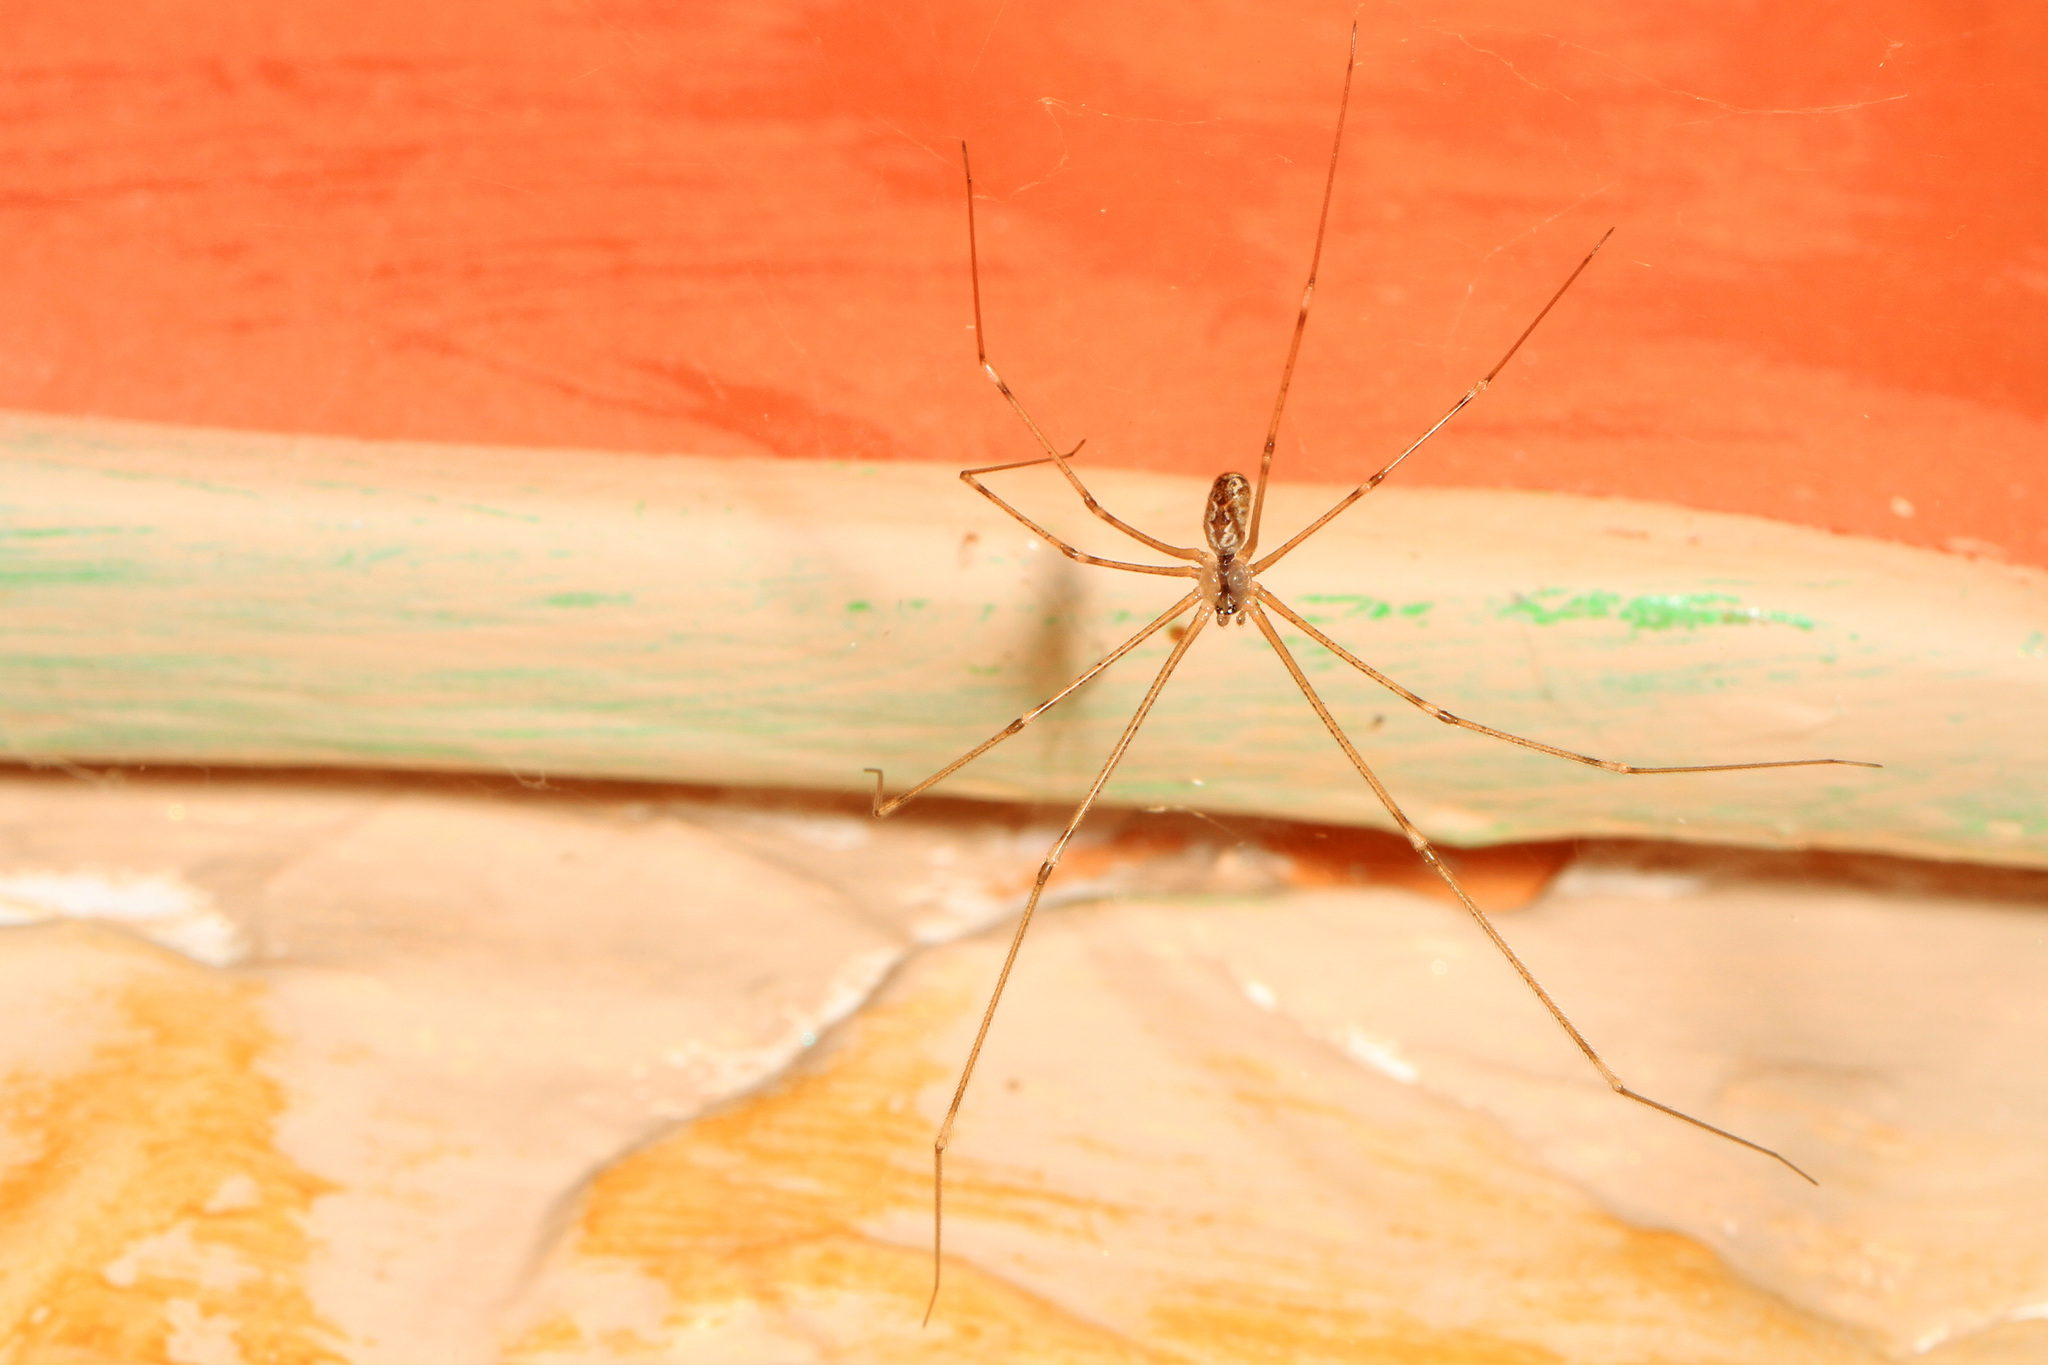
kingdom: Animalia
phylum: Arthropoda
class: Arachnida
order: Araneae
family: Pholcidae
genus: Holocnemus
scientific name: Holocnemus pluchei
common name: Marbled cellar spider
